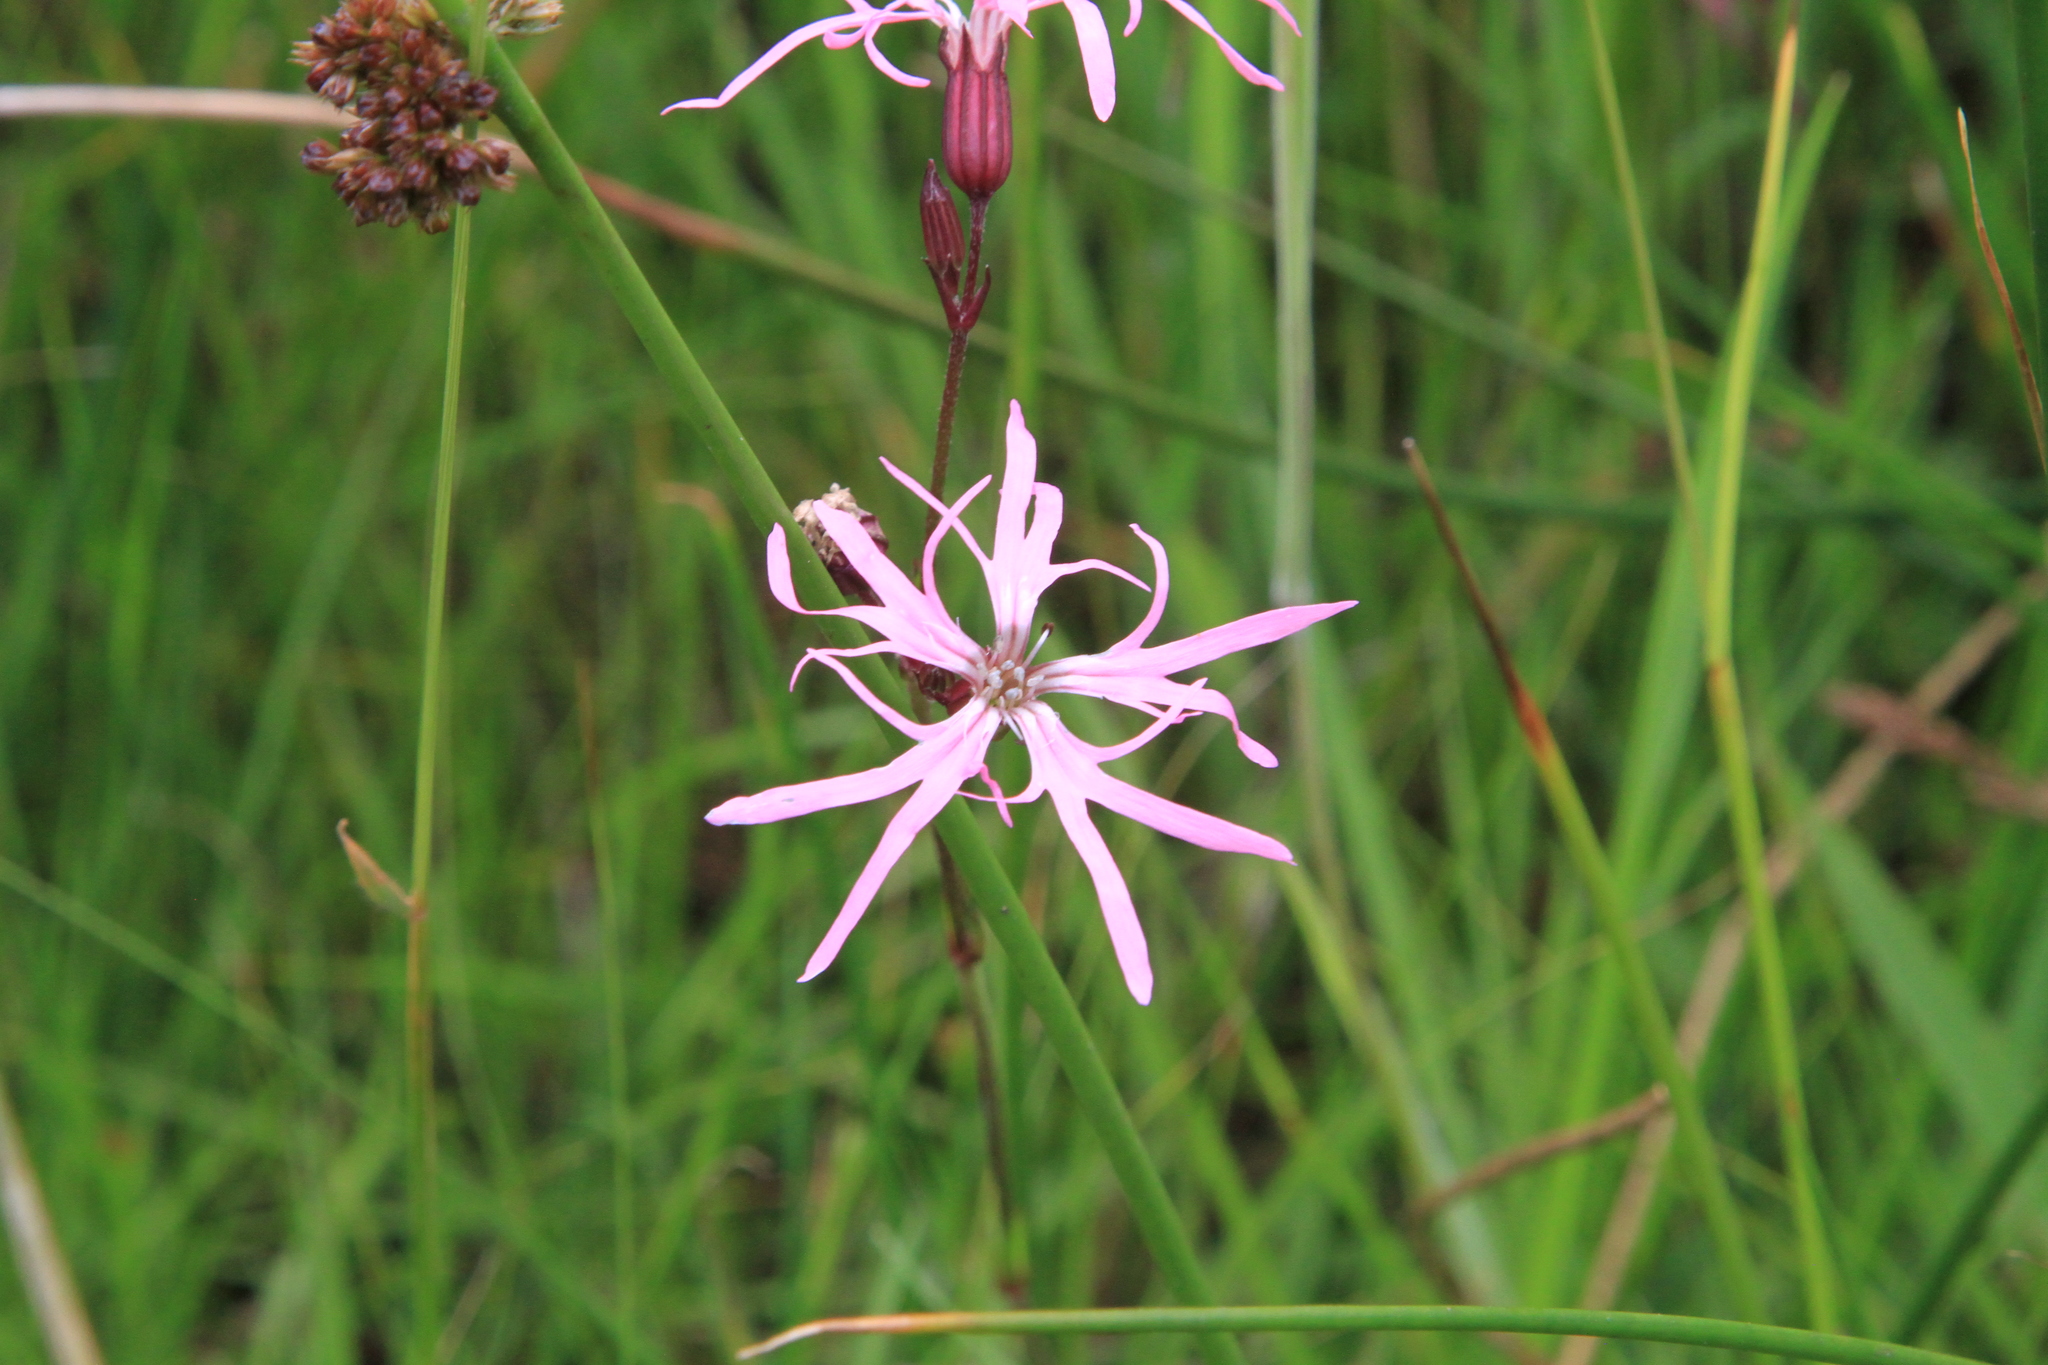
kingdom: Plantae
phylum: Tracheophyta
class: Magnoliopsida
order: Caryophyllales
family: Caryophyllaceae
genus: Silene
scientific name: Silene flos-cuculi
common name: Ragged-robin
